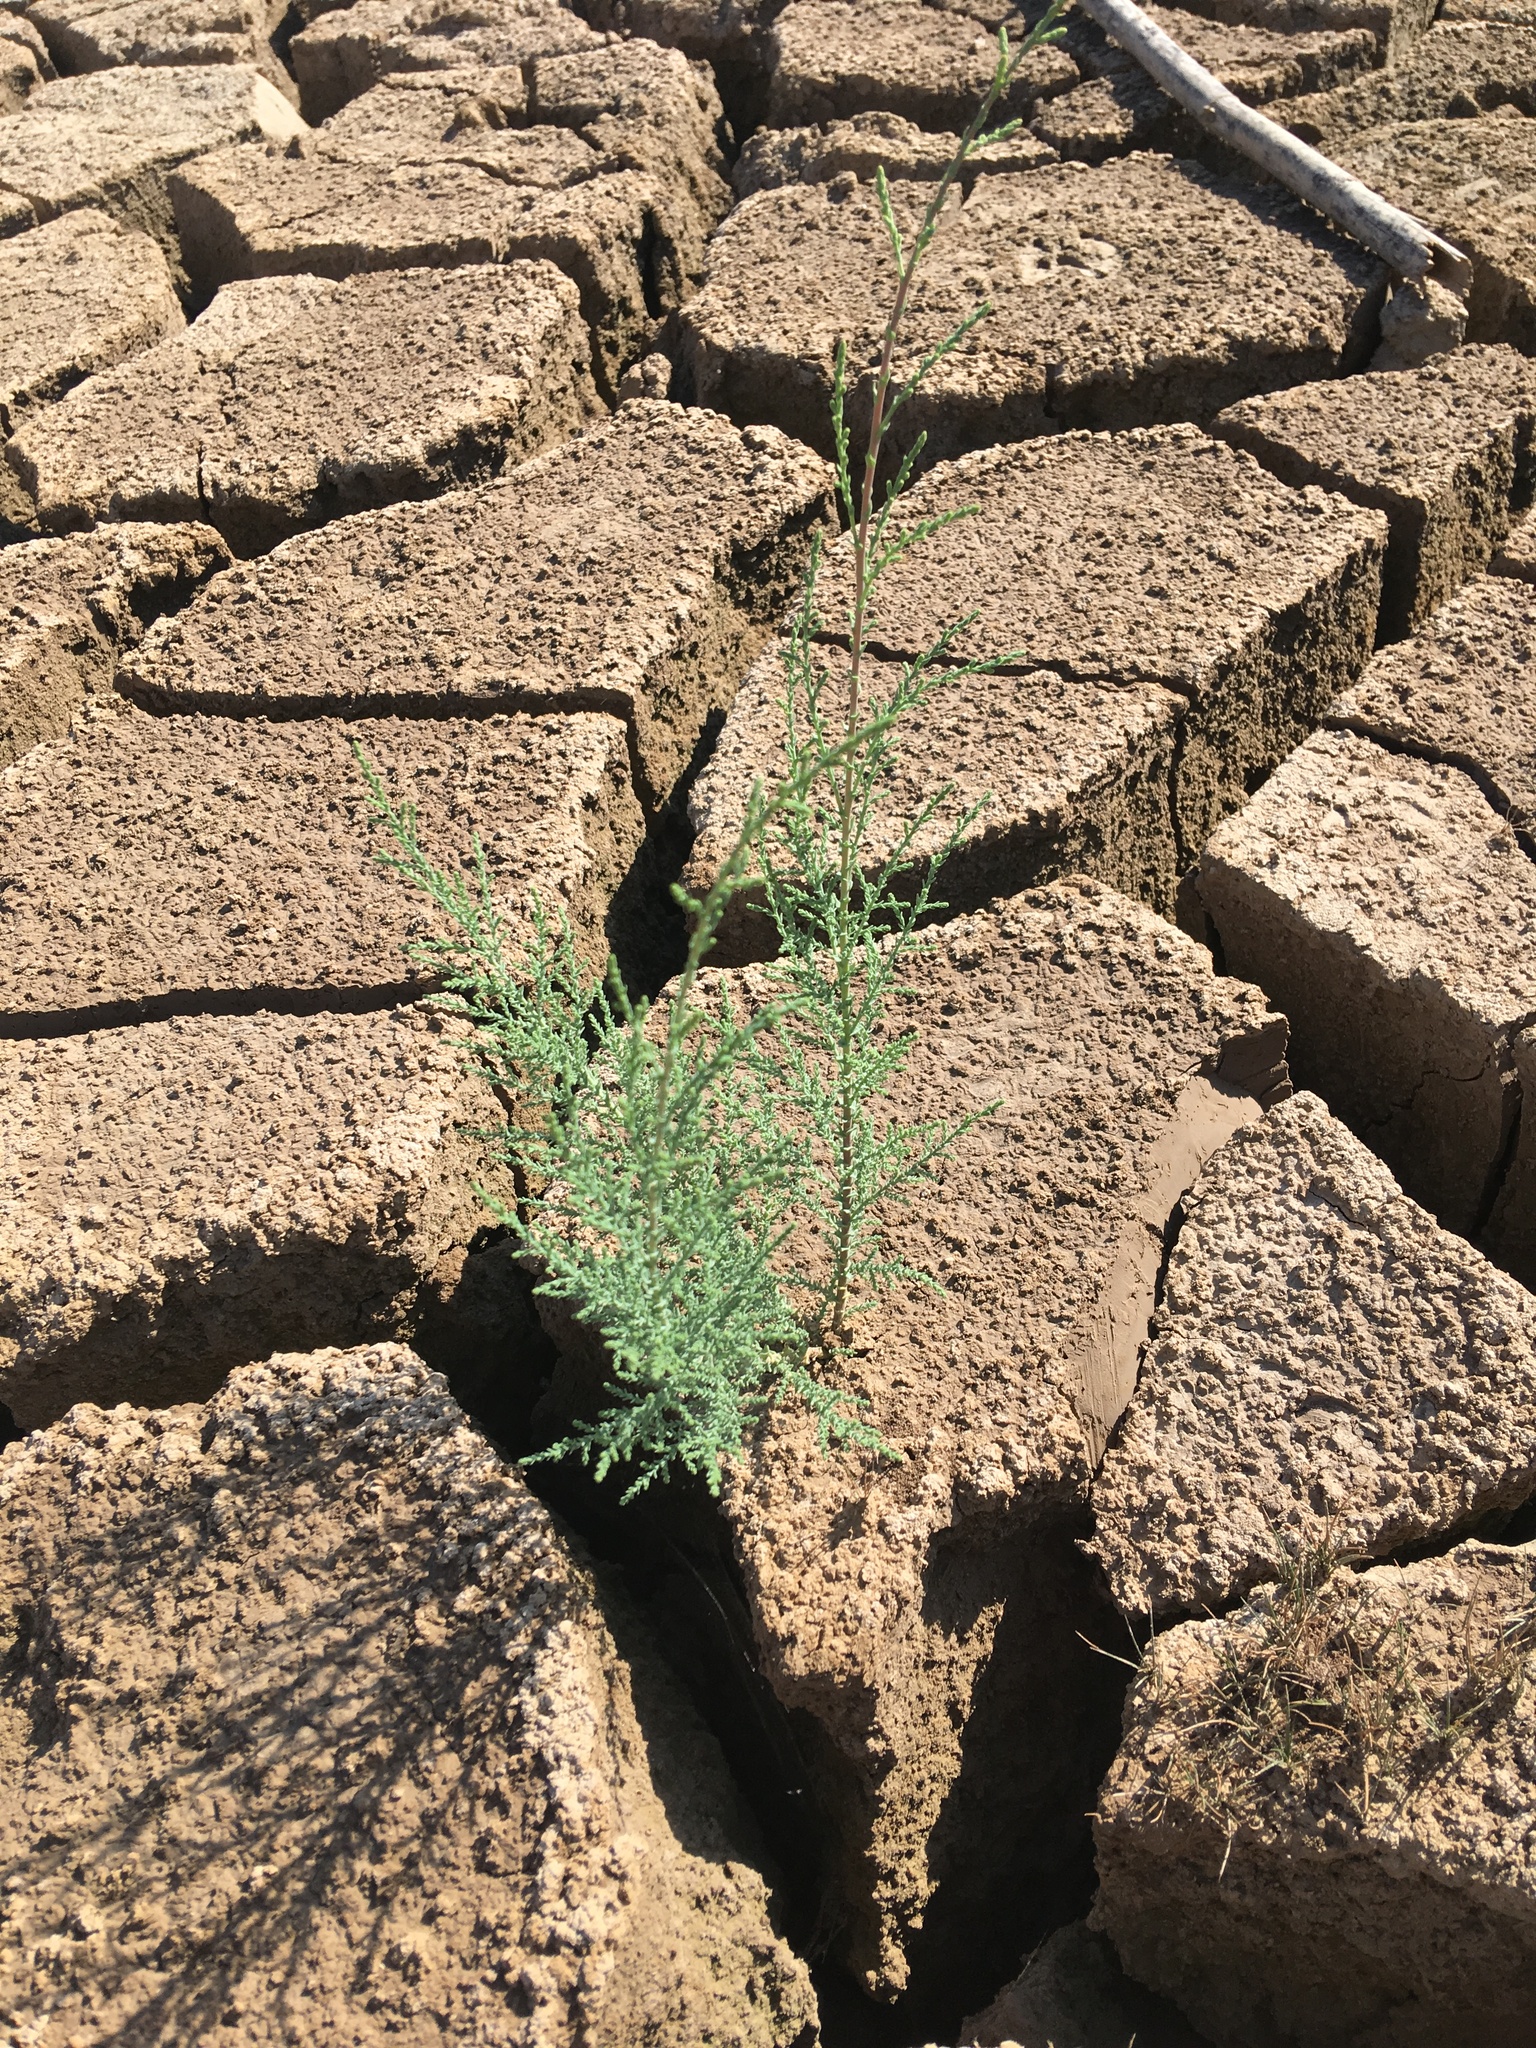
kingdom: Plantae
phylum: Tracheophyta
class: Magnoliopsida
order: Caryophyllales
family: Tamaricaceae
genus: Tamarix
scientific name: Tamarix ramosissima
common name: Pink tamarisk
